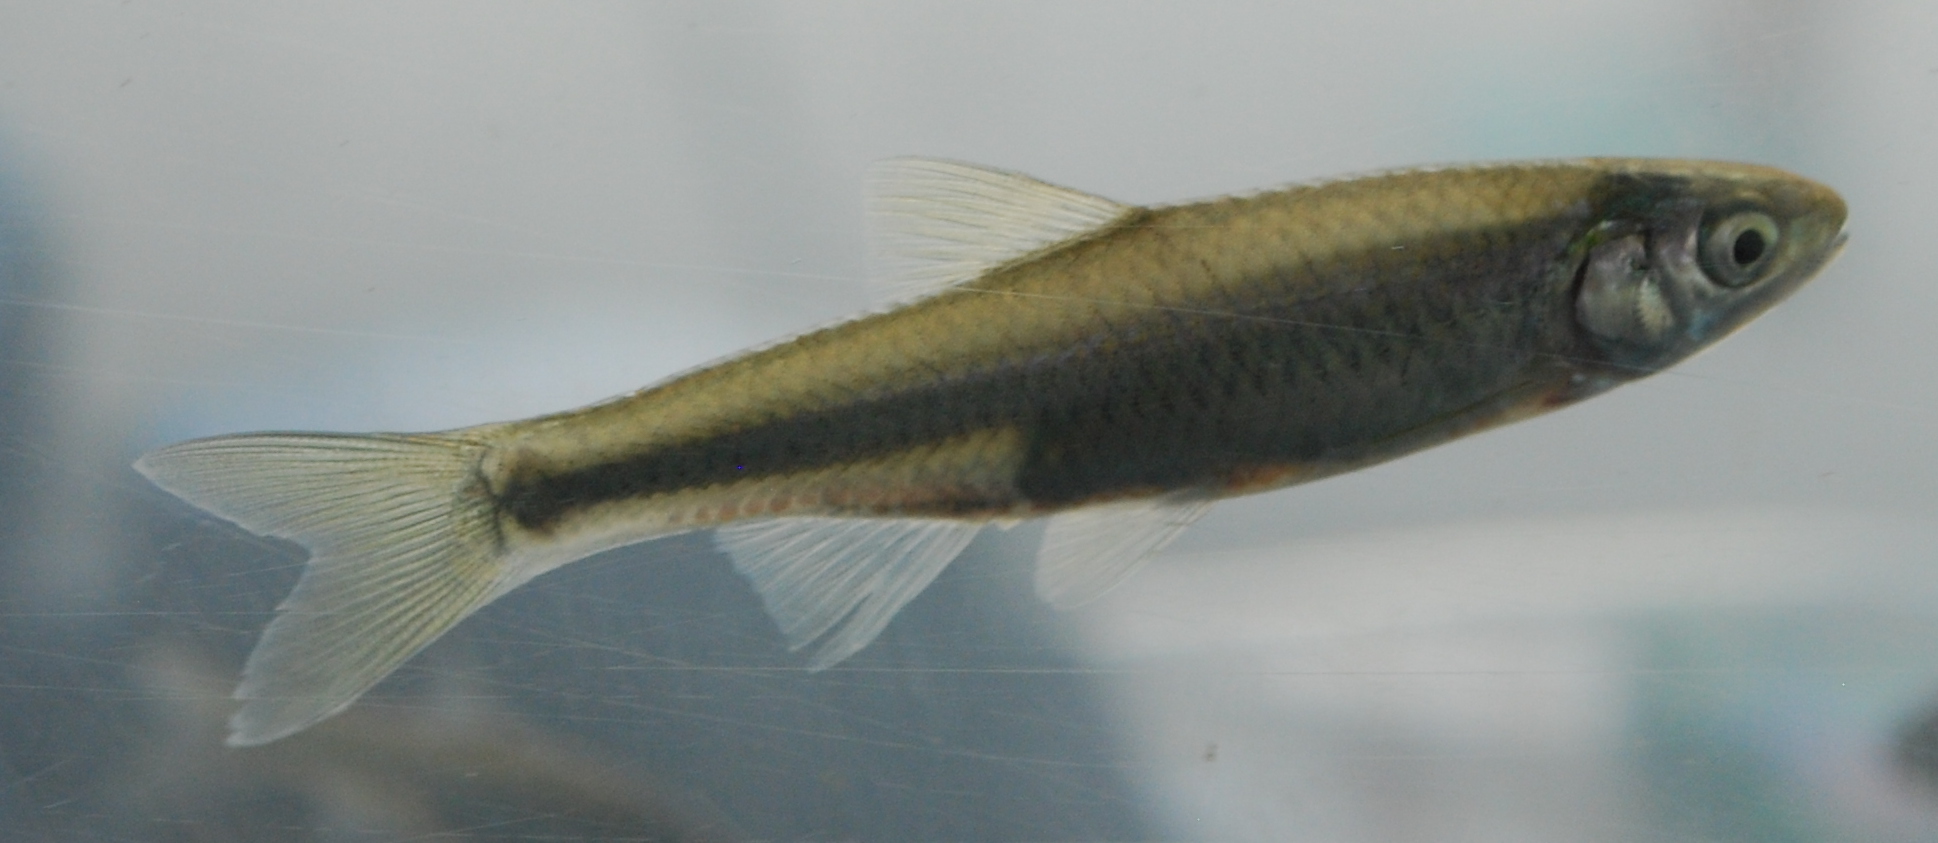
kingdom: Animalia
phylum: Chordata
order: Cypriniformes
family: Cyprinidae
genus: Cyprinella
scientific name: Cyprinella spiloptera
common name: Spotfin shiner
